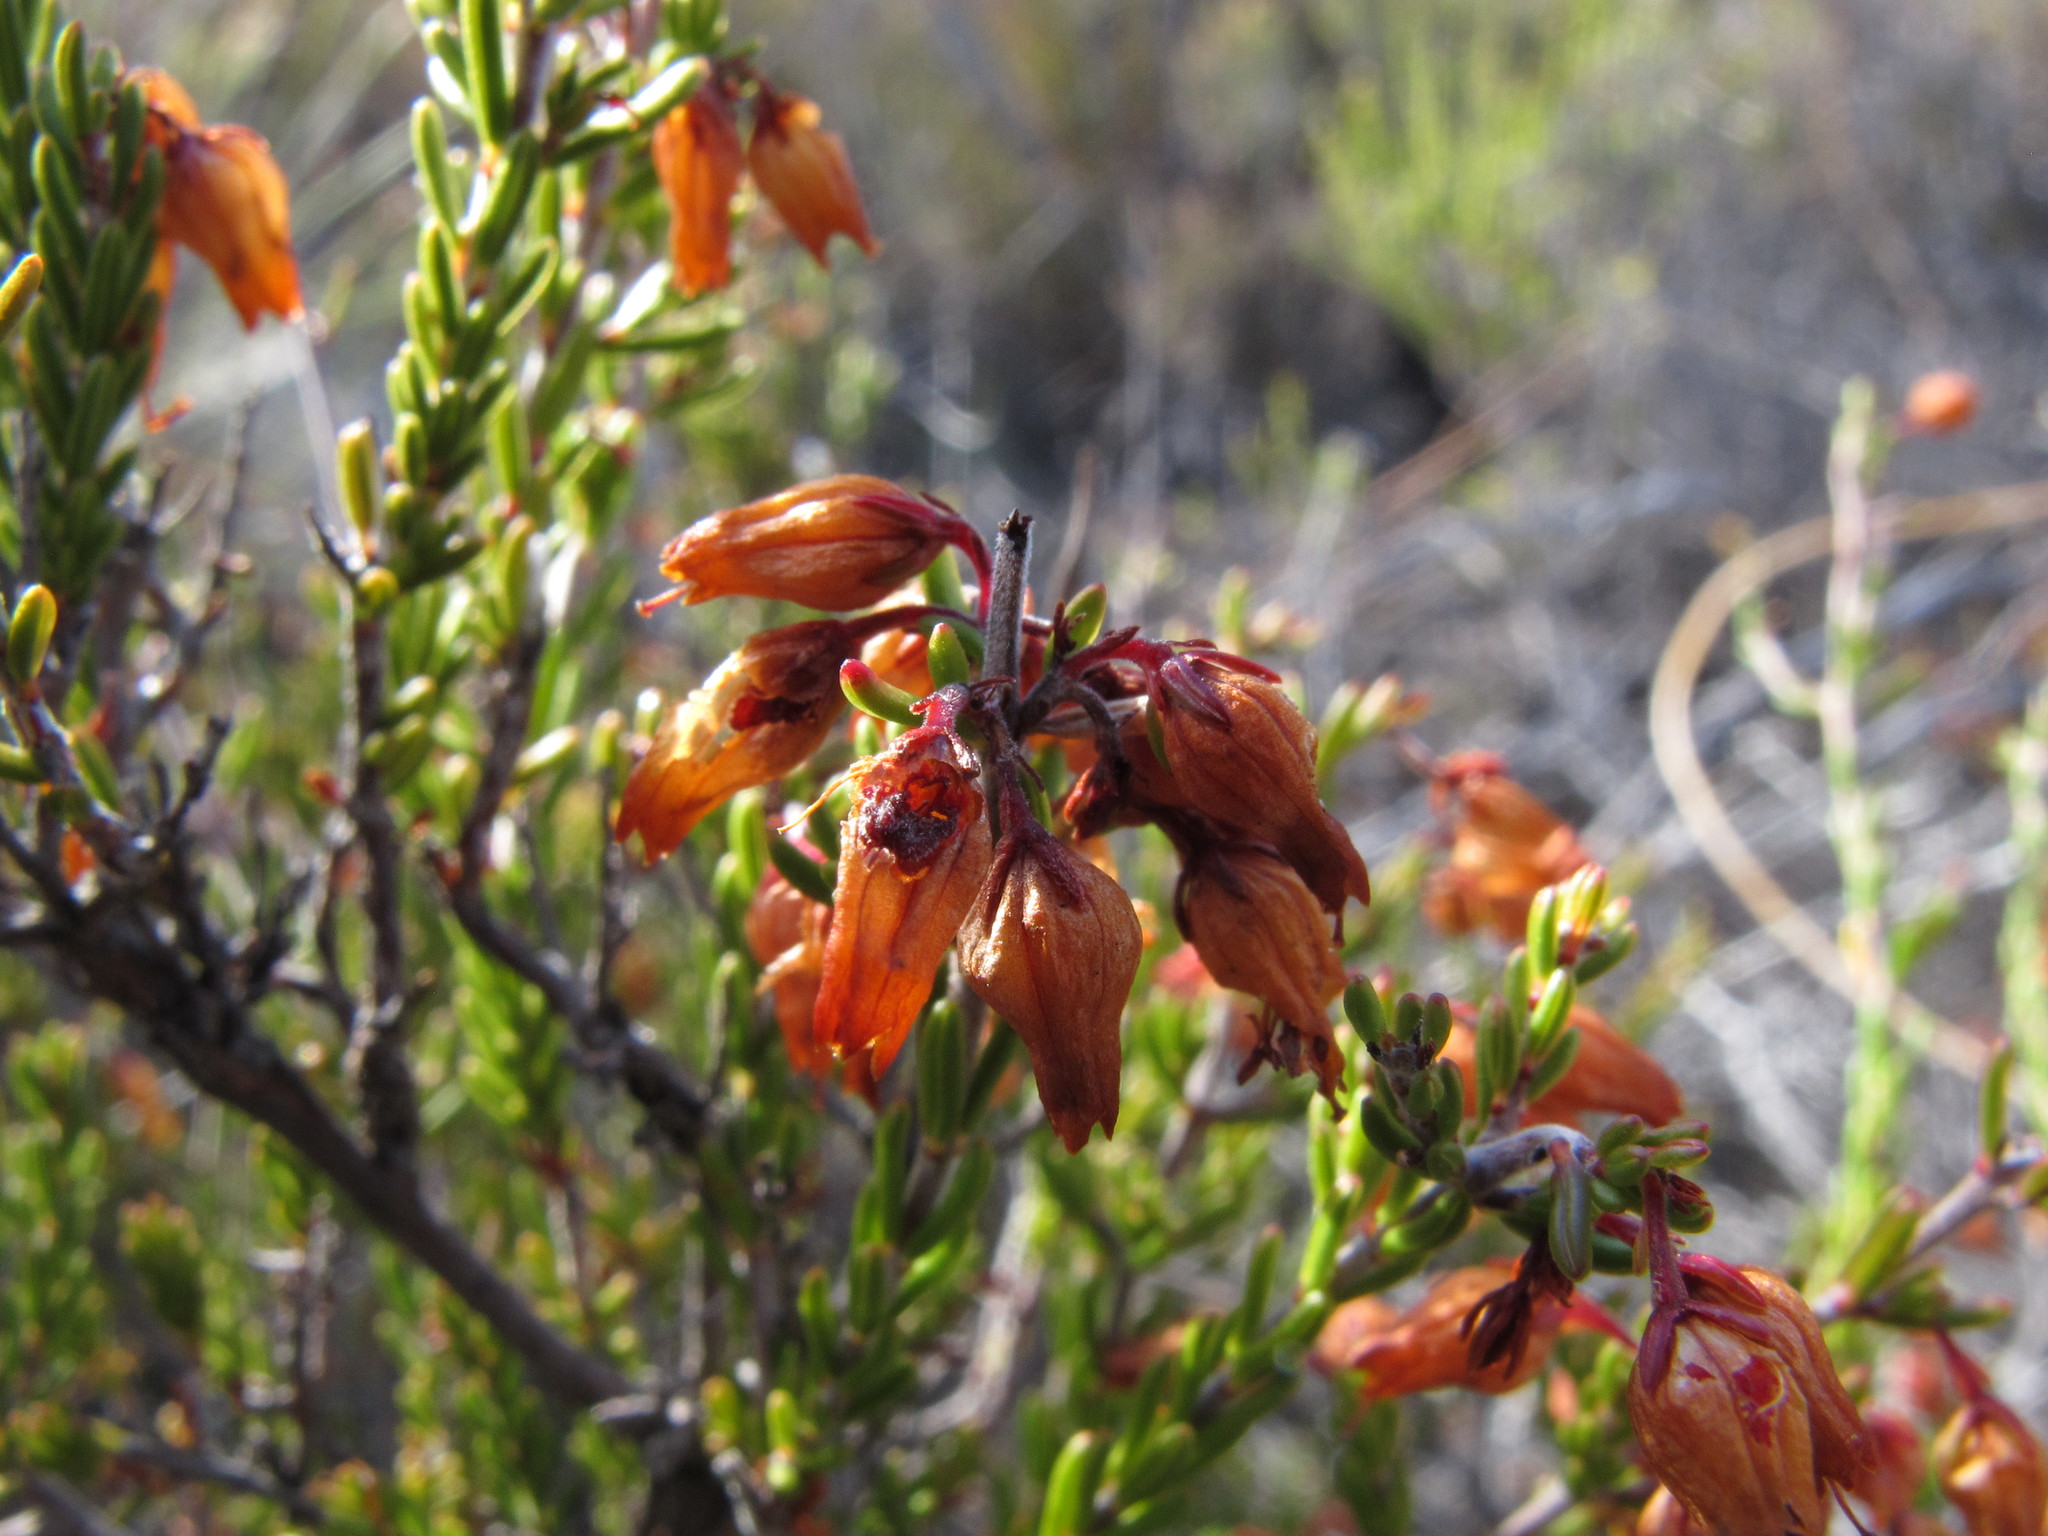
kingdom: Plantae
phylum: Tracheophyta
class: Magnoliopsida
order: Ericales
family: Ericaceae
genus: Erica
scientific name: Erica mira
